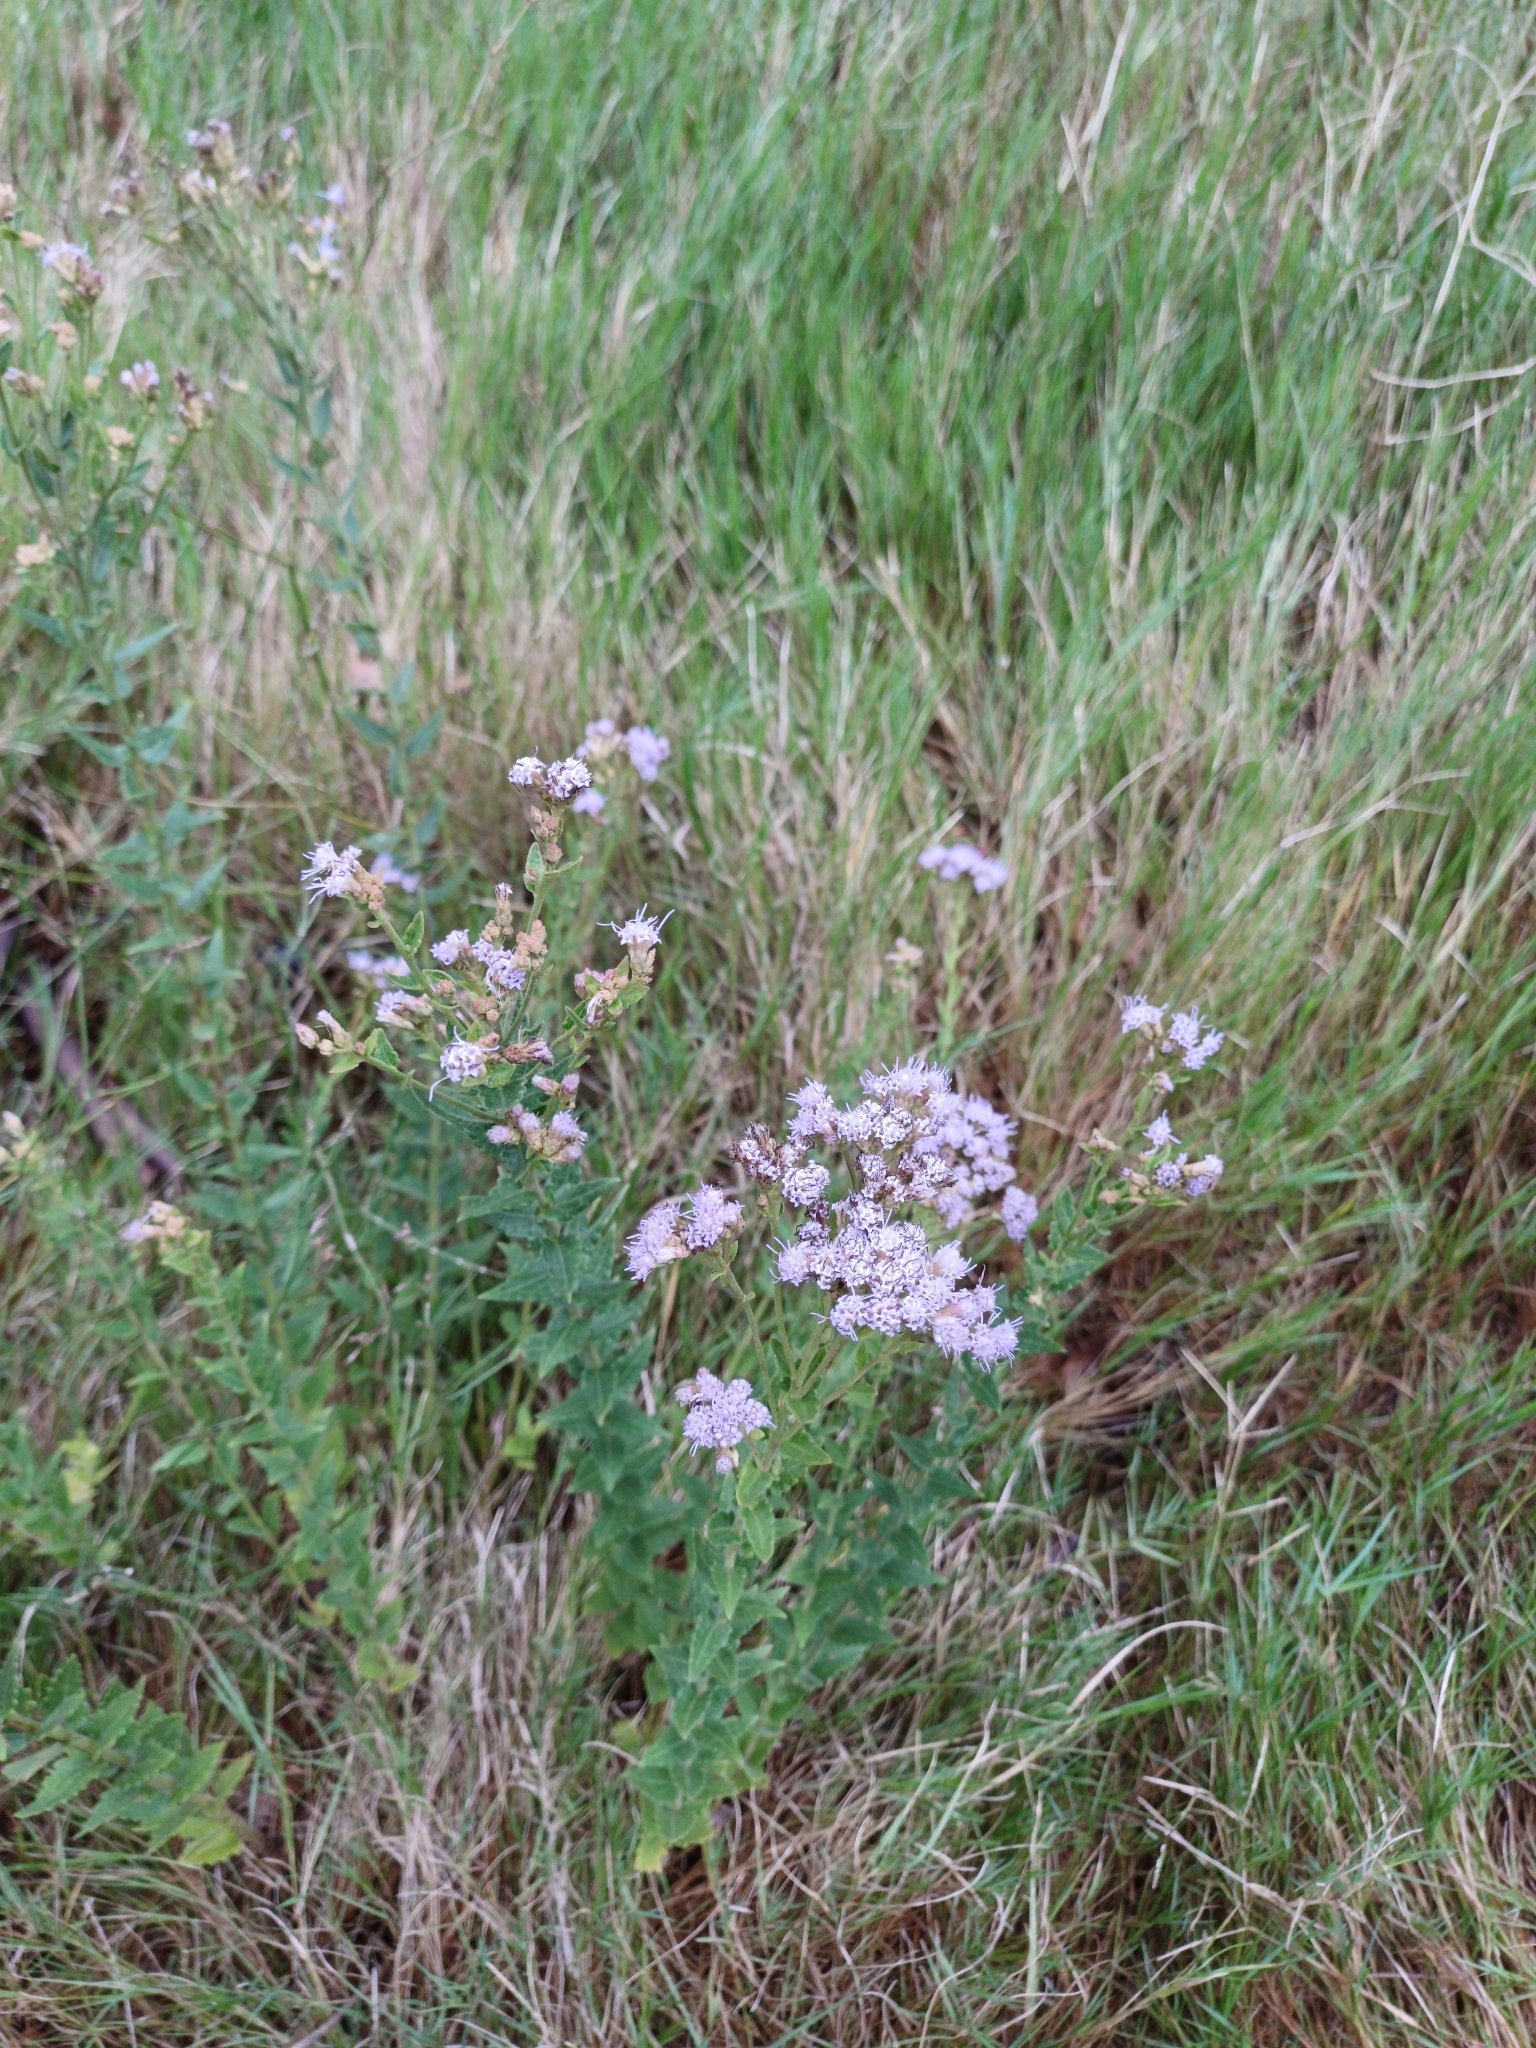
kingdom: Plantae
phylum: Tracheophyta
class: Magnoliopsida
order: Asterales
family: Asteraceae
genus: Chromolaena
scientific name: Chromolaena hirsuta
